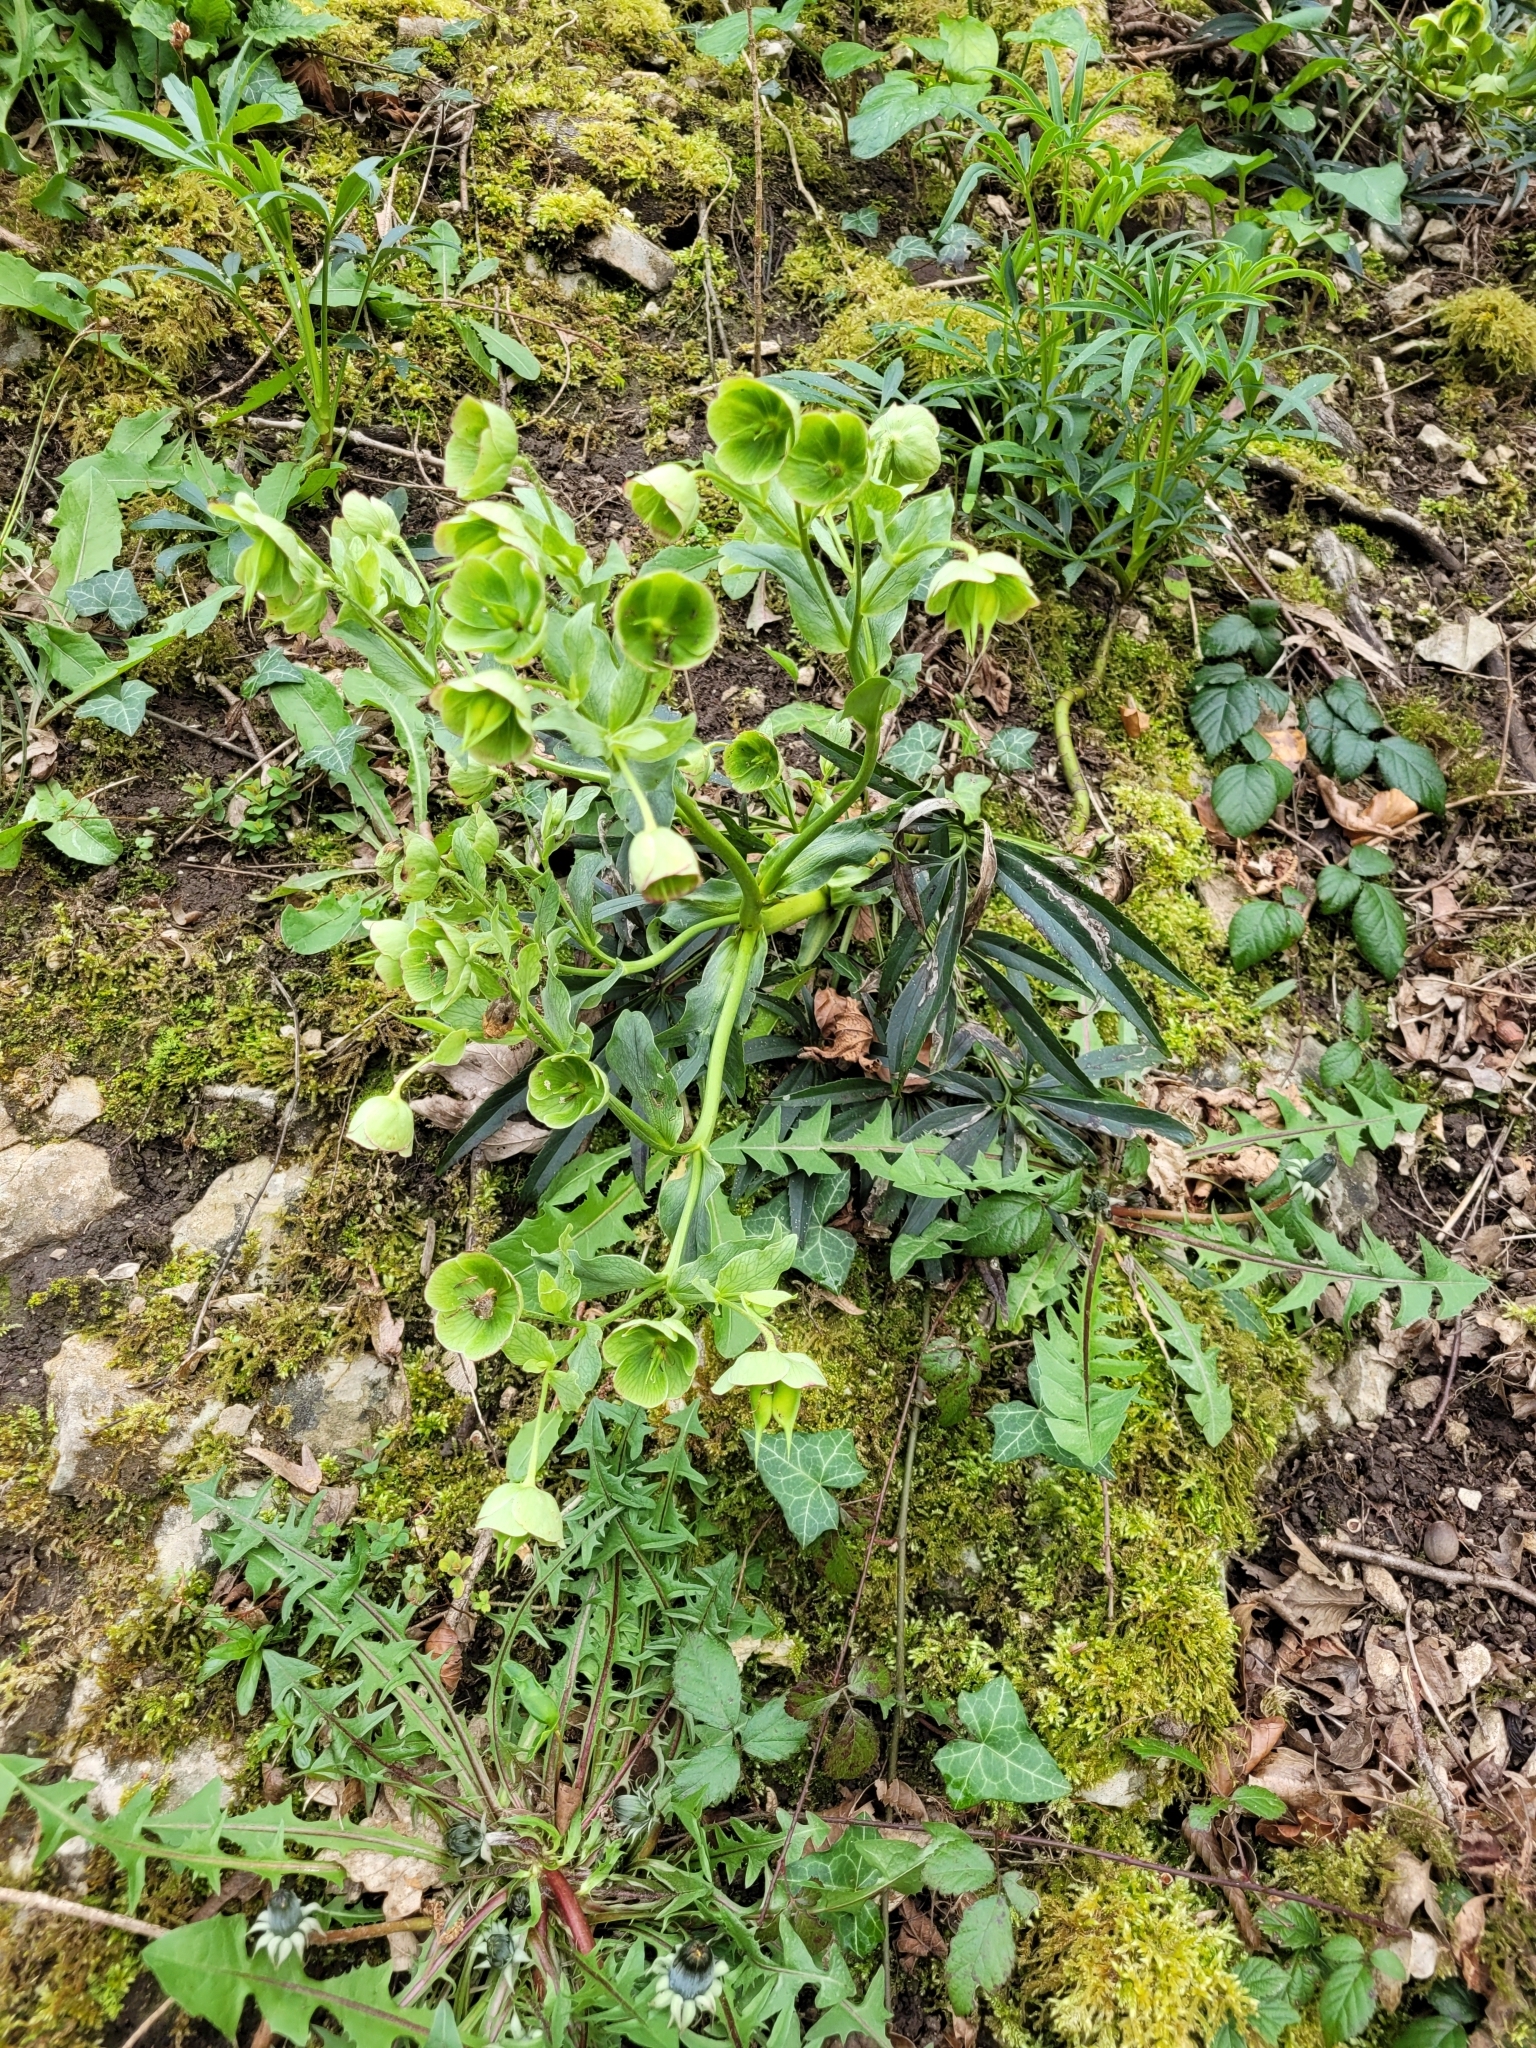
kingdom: Plantae
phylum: Tracheophyta
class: Magnoliopsida
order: Ranunculales
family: Ranunculaceae
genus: Helleborus
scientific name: Helleborus foetidus
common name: Stinking hellebore
